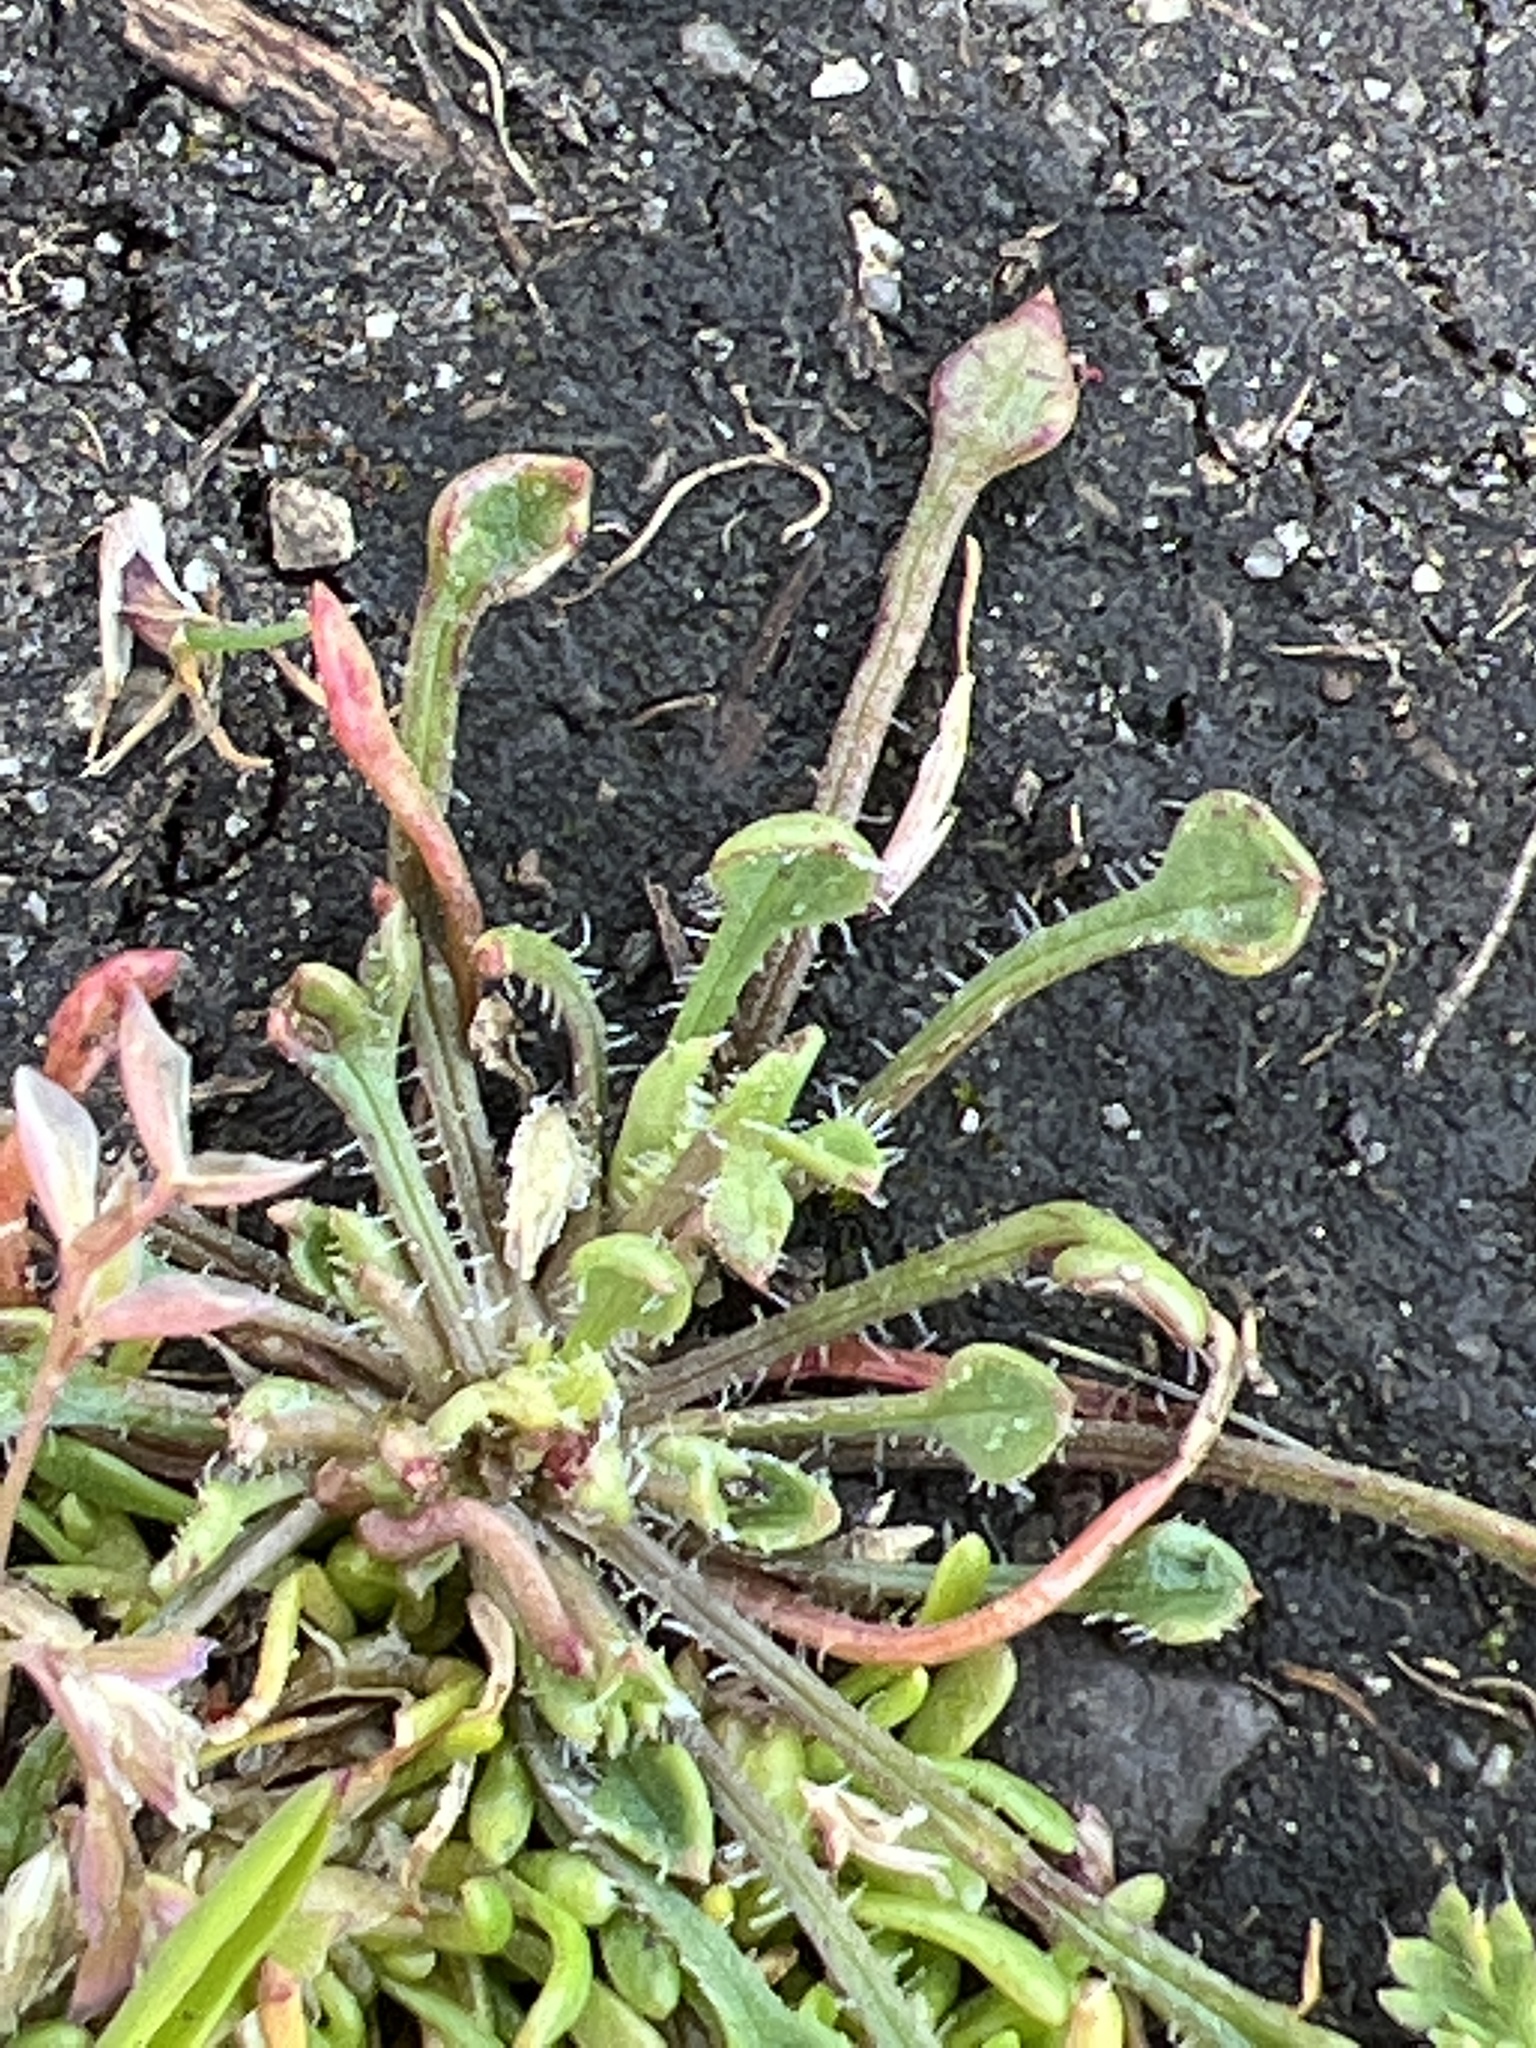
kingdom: Plantae
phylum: Tracheophyta
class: Magnoliopsida
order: Caryophyllales
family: Montiaceae
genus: Calandrinia
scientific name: Calandrinia menziesii
